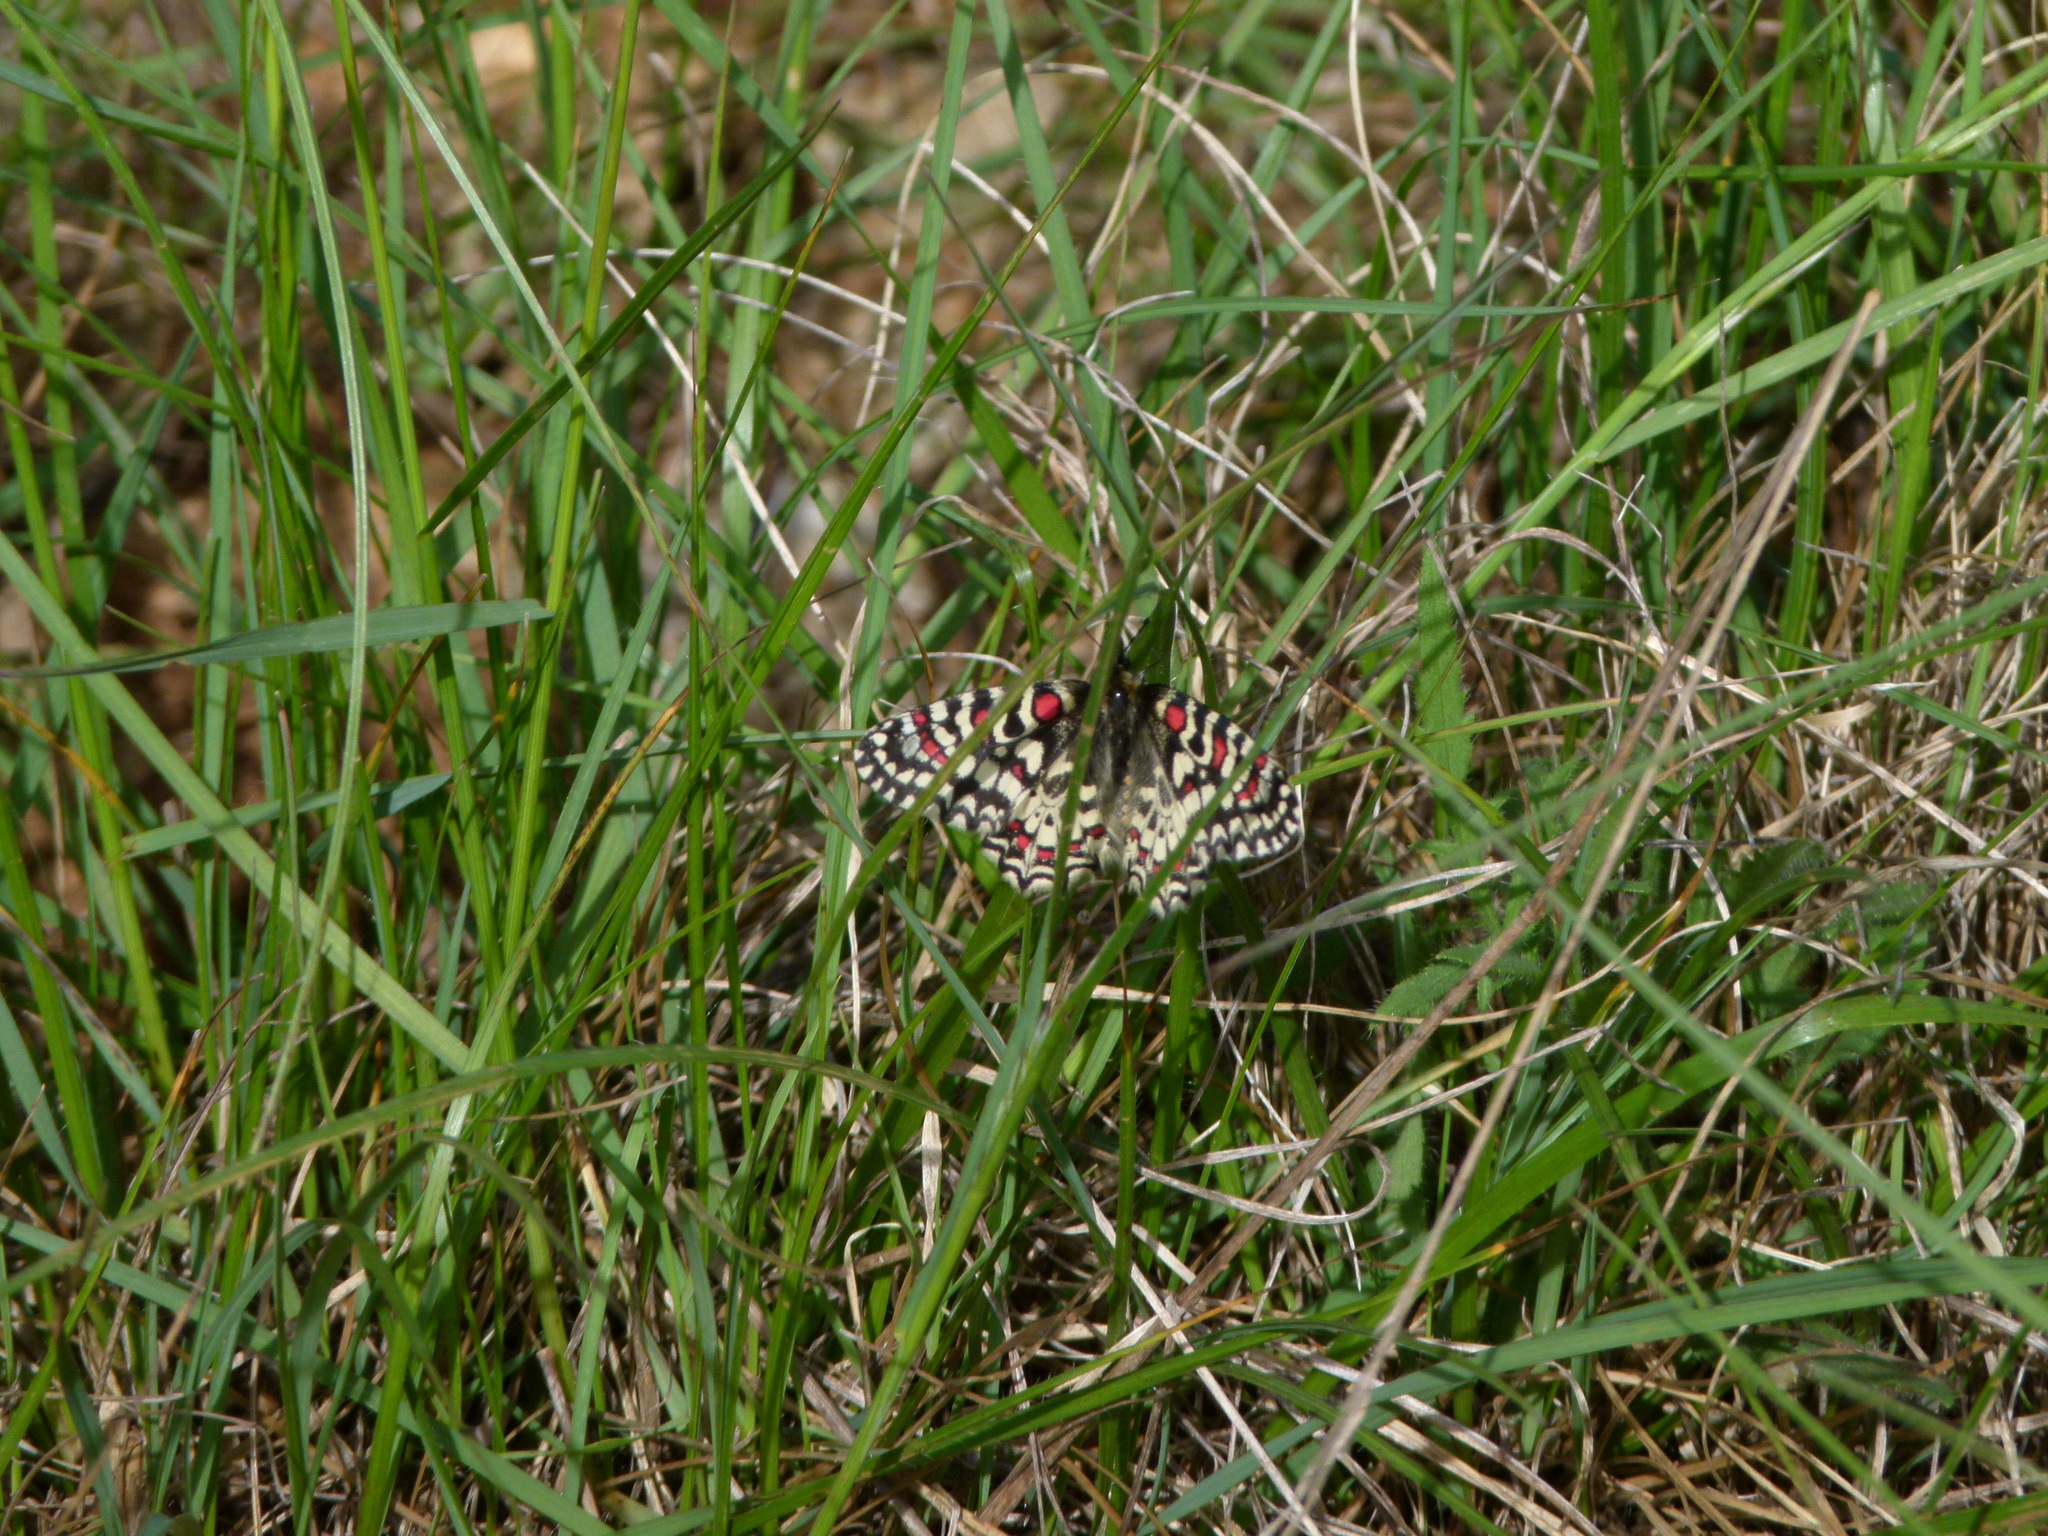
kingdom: Animalia
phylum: Arthropoda
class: Insecta
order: Lepidoptera
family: Papilionidae
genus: Zerynthia
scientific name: Zerynthia rumina
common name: Spanish festoon
